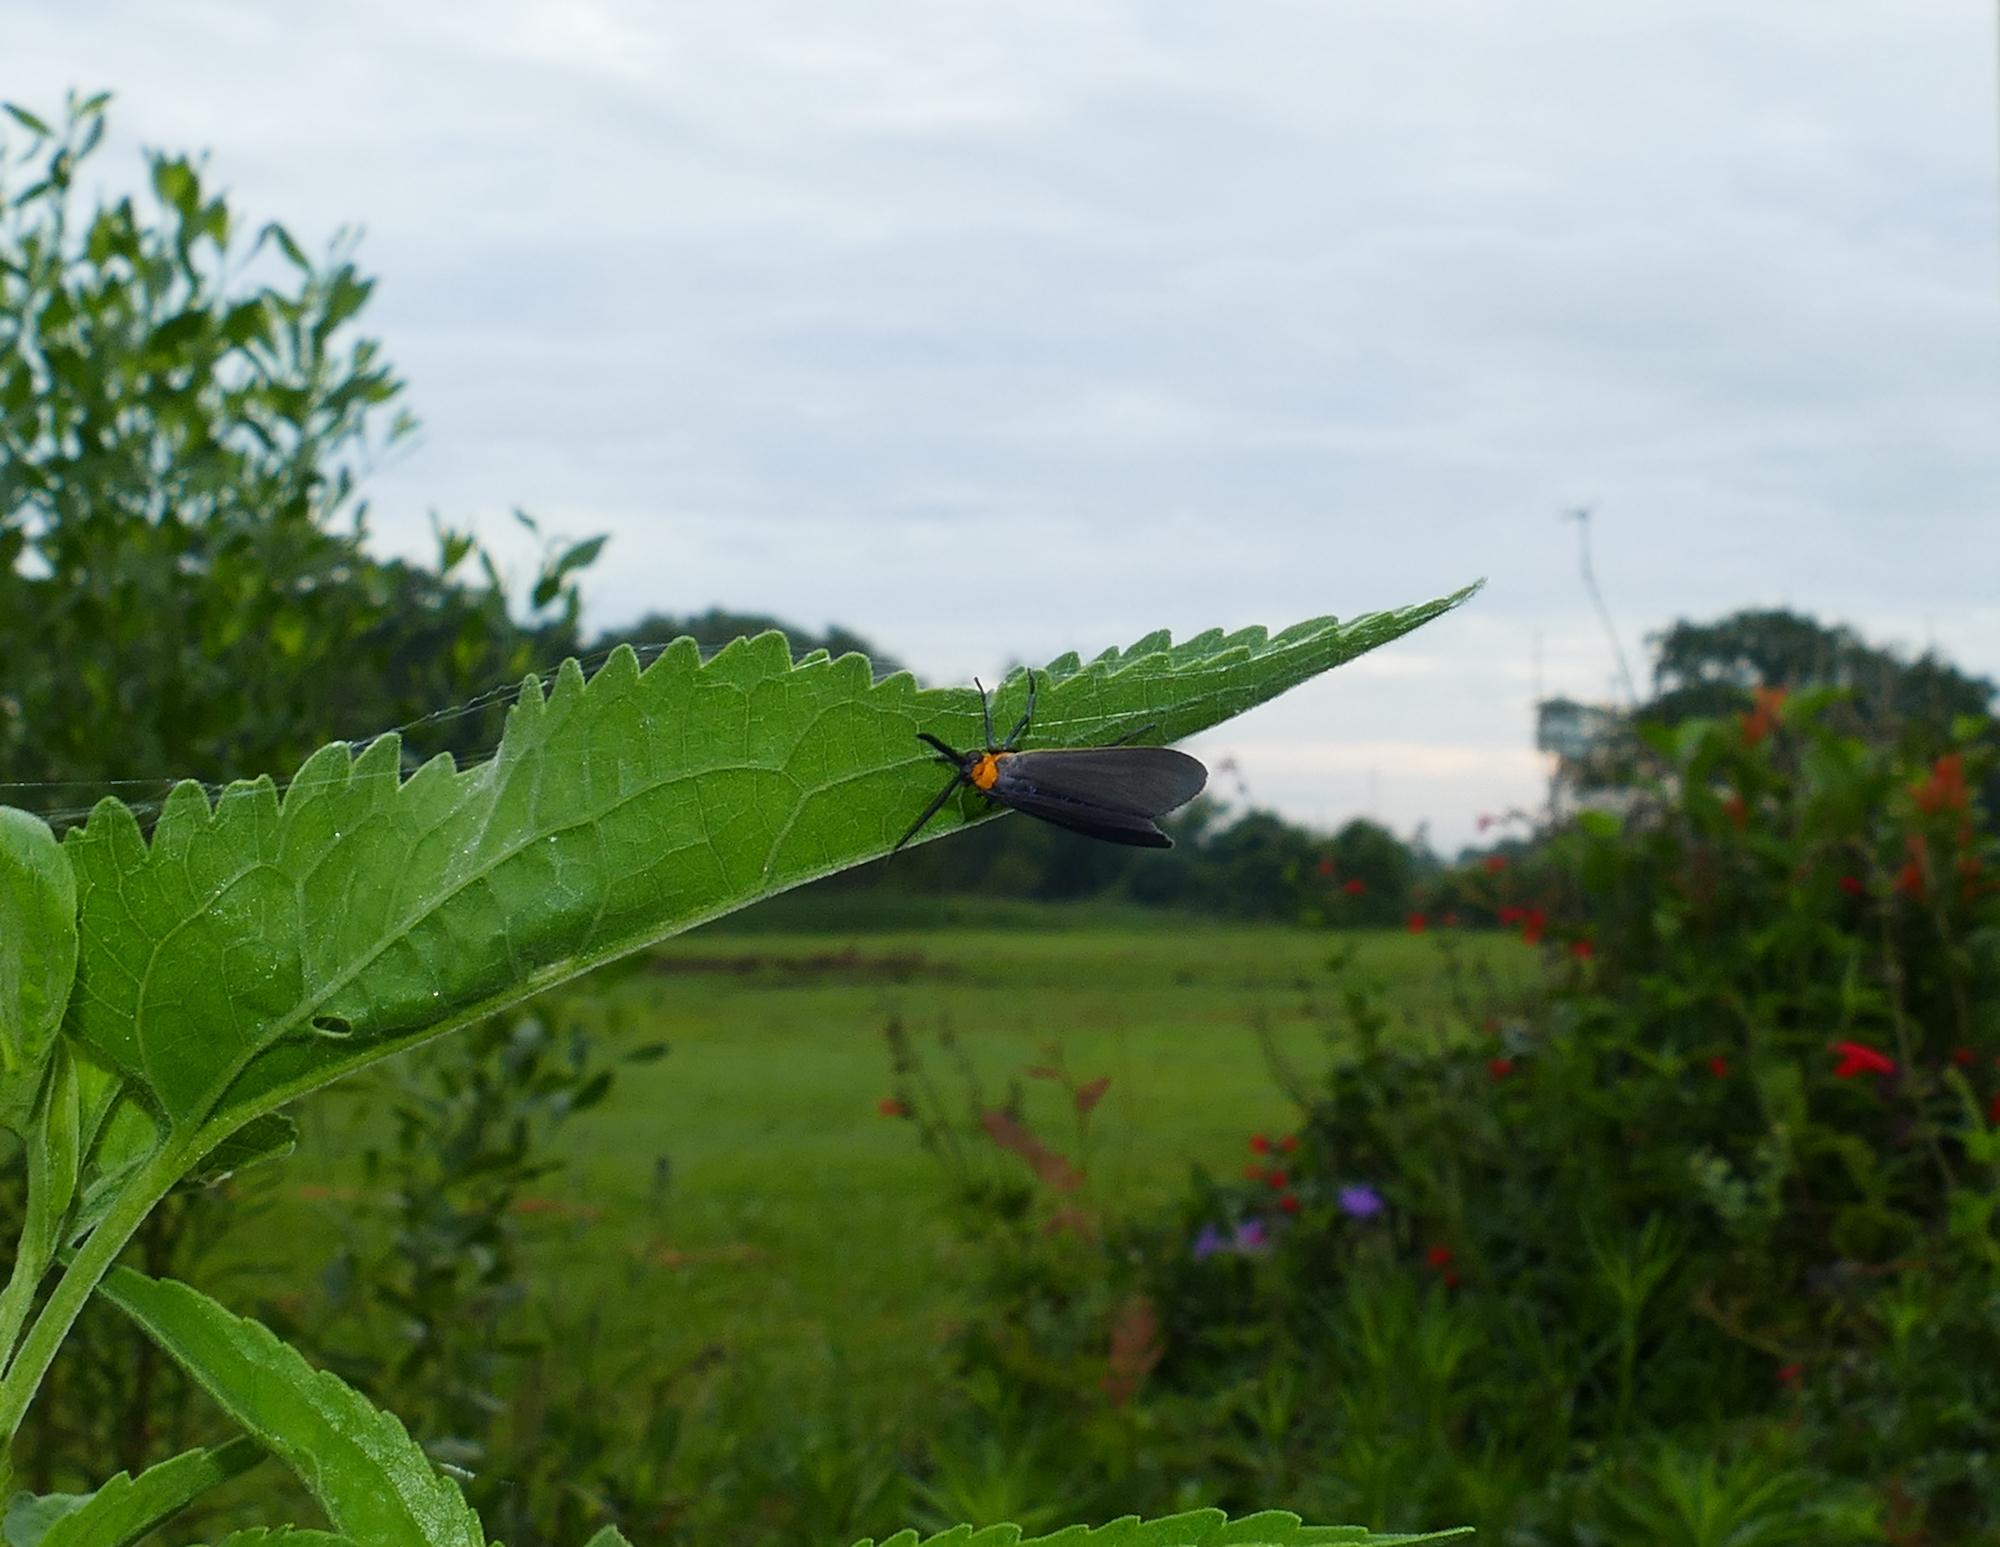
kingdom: Animalia
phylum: Arthropoda
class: Insecta
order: Lepidoptera
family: Erebidae
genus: Cisseps
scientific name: Cisseps fulvicollis
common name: Yellow-collared scape moth
